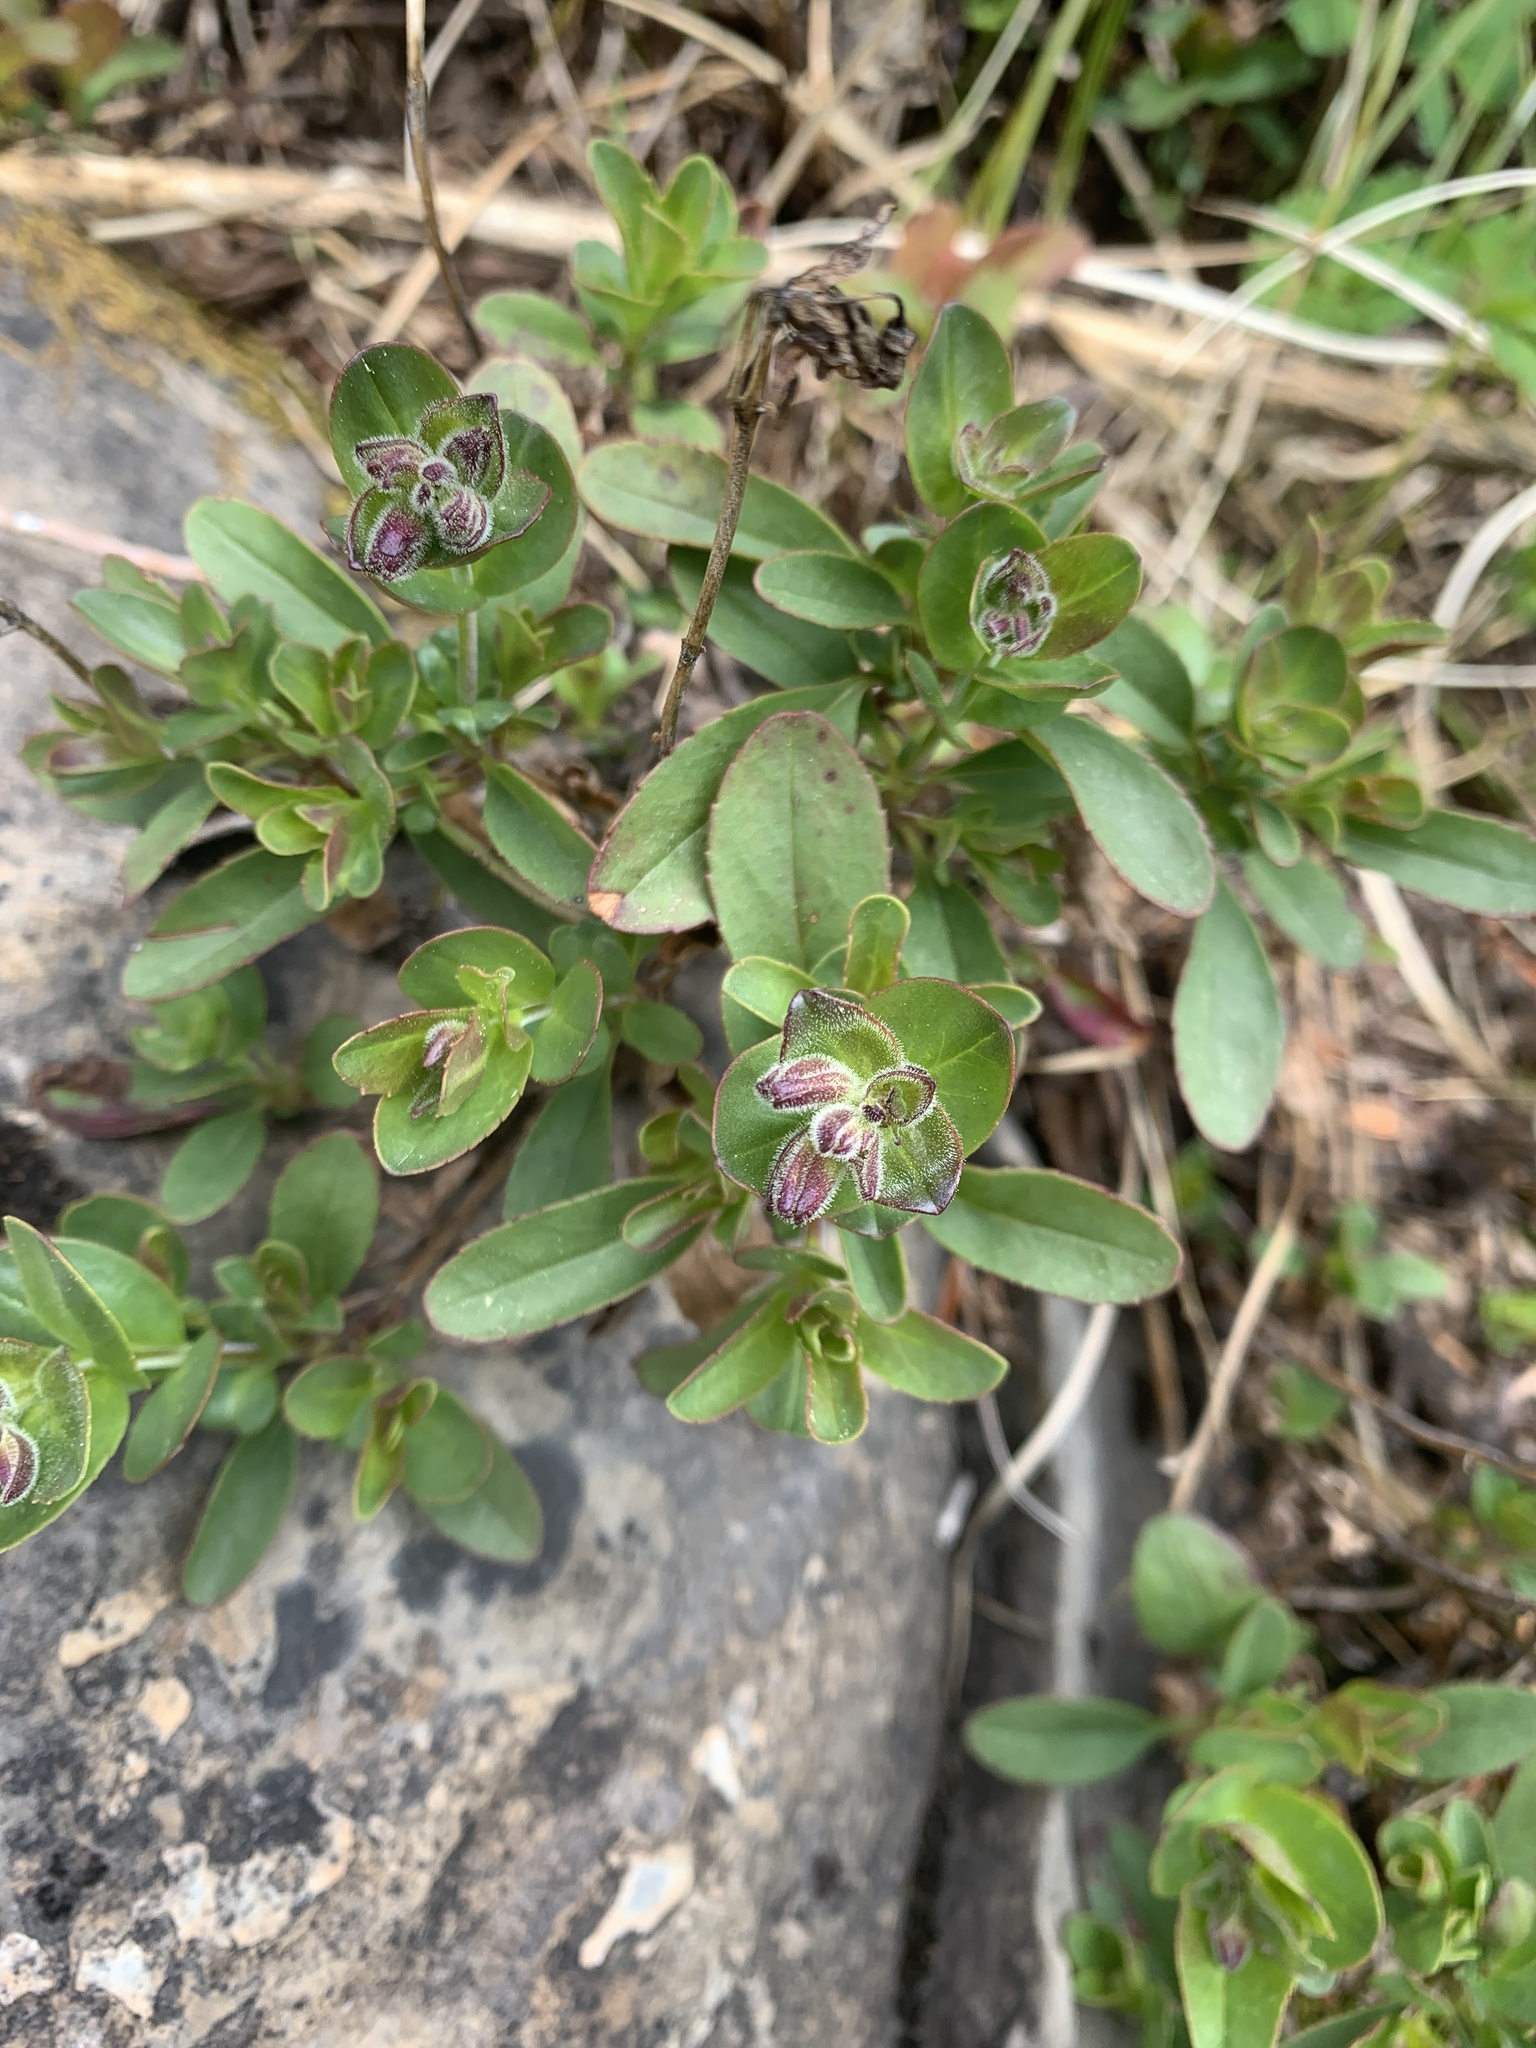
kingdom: Plantae
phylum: Tracheophyta
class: Magnoliopsida
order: Lamiales
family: Plantaginaceae
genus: Penstemon
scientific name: Penstemon ellipticus
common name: Alpine beardtongue
